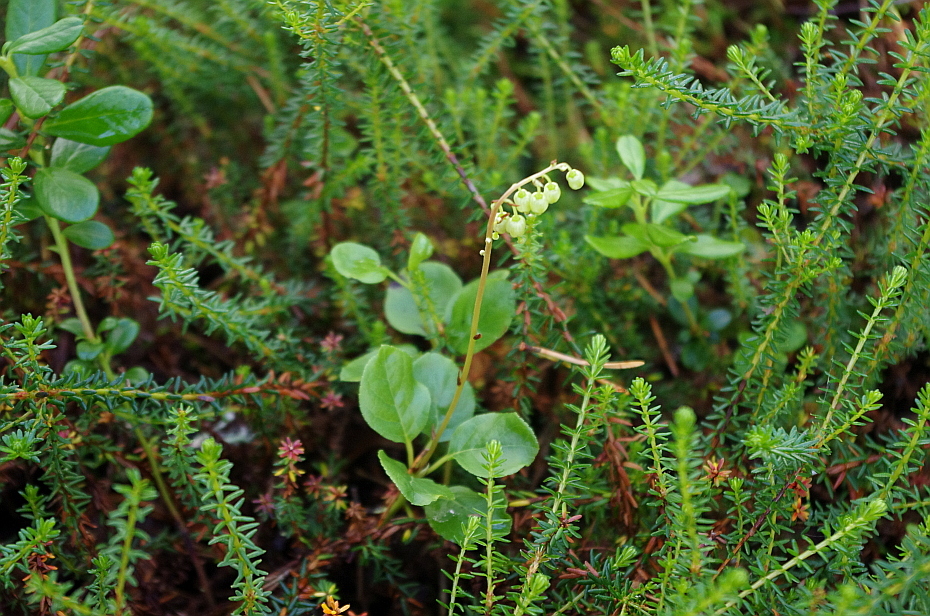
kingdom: Plantae
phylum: Tracheophyta
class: Magnoliopsida
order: Ericales
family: Ericaceae
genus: Orthilia
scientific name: Orthilia secunda
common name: One-sided orthilia
